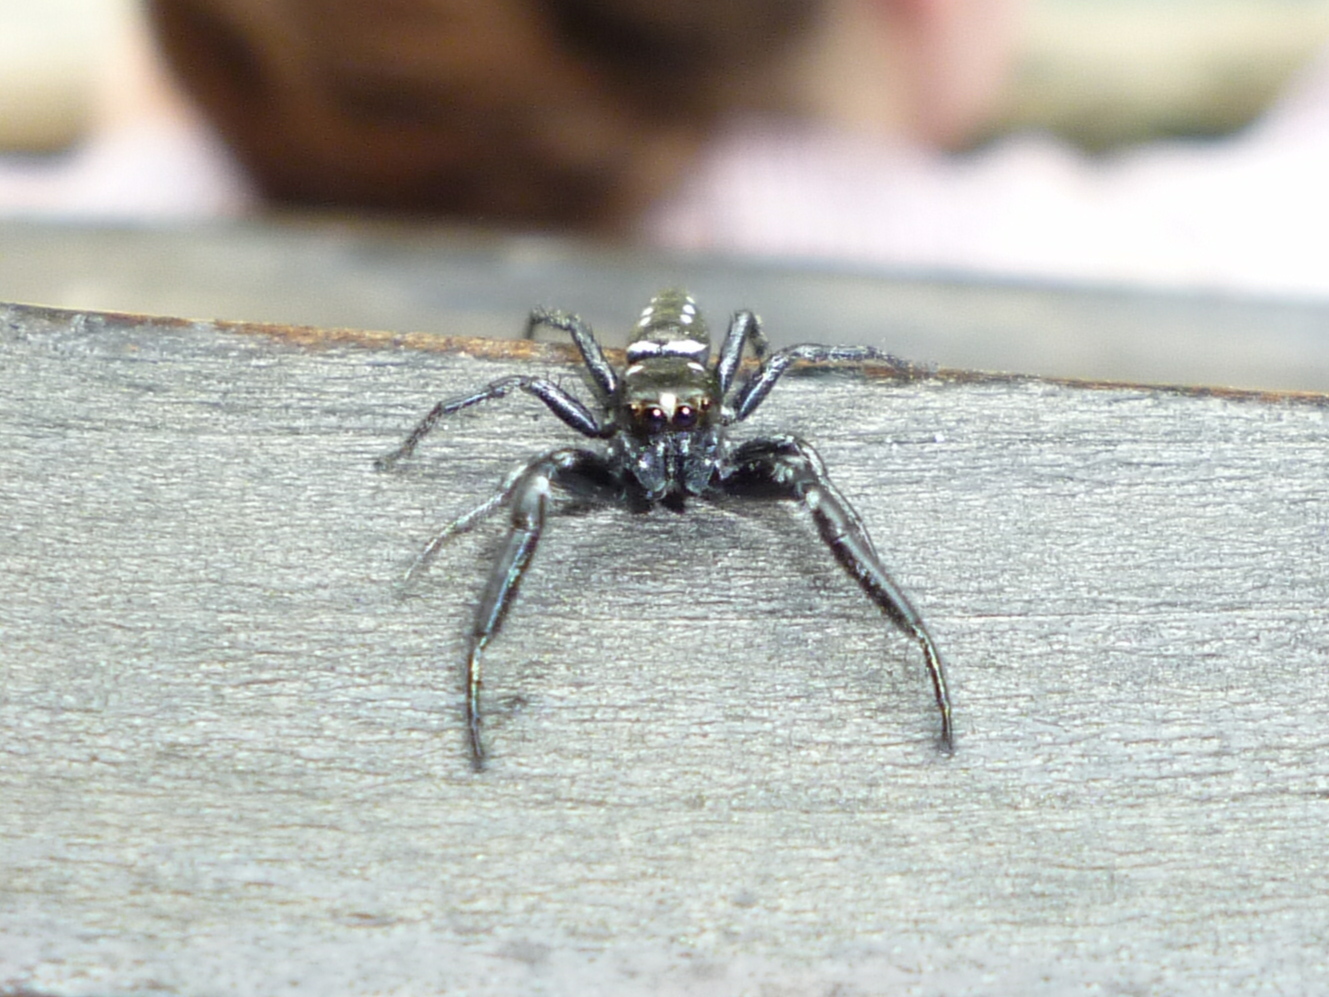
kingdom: Animalia
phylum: Arthropoda
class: Arachnida
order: Araneae
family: Salticidae
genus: Marpissa
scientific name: Marpissa formosa
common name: Short-bellied slender jumping spider
